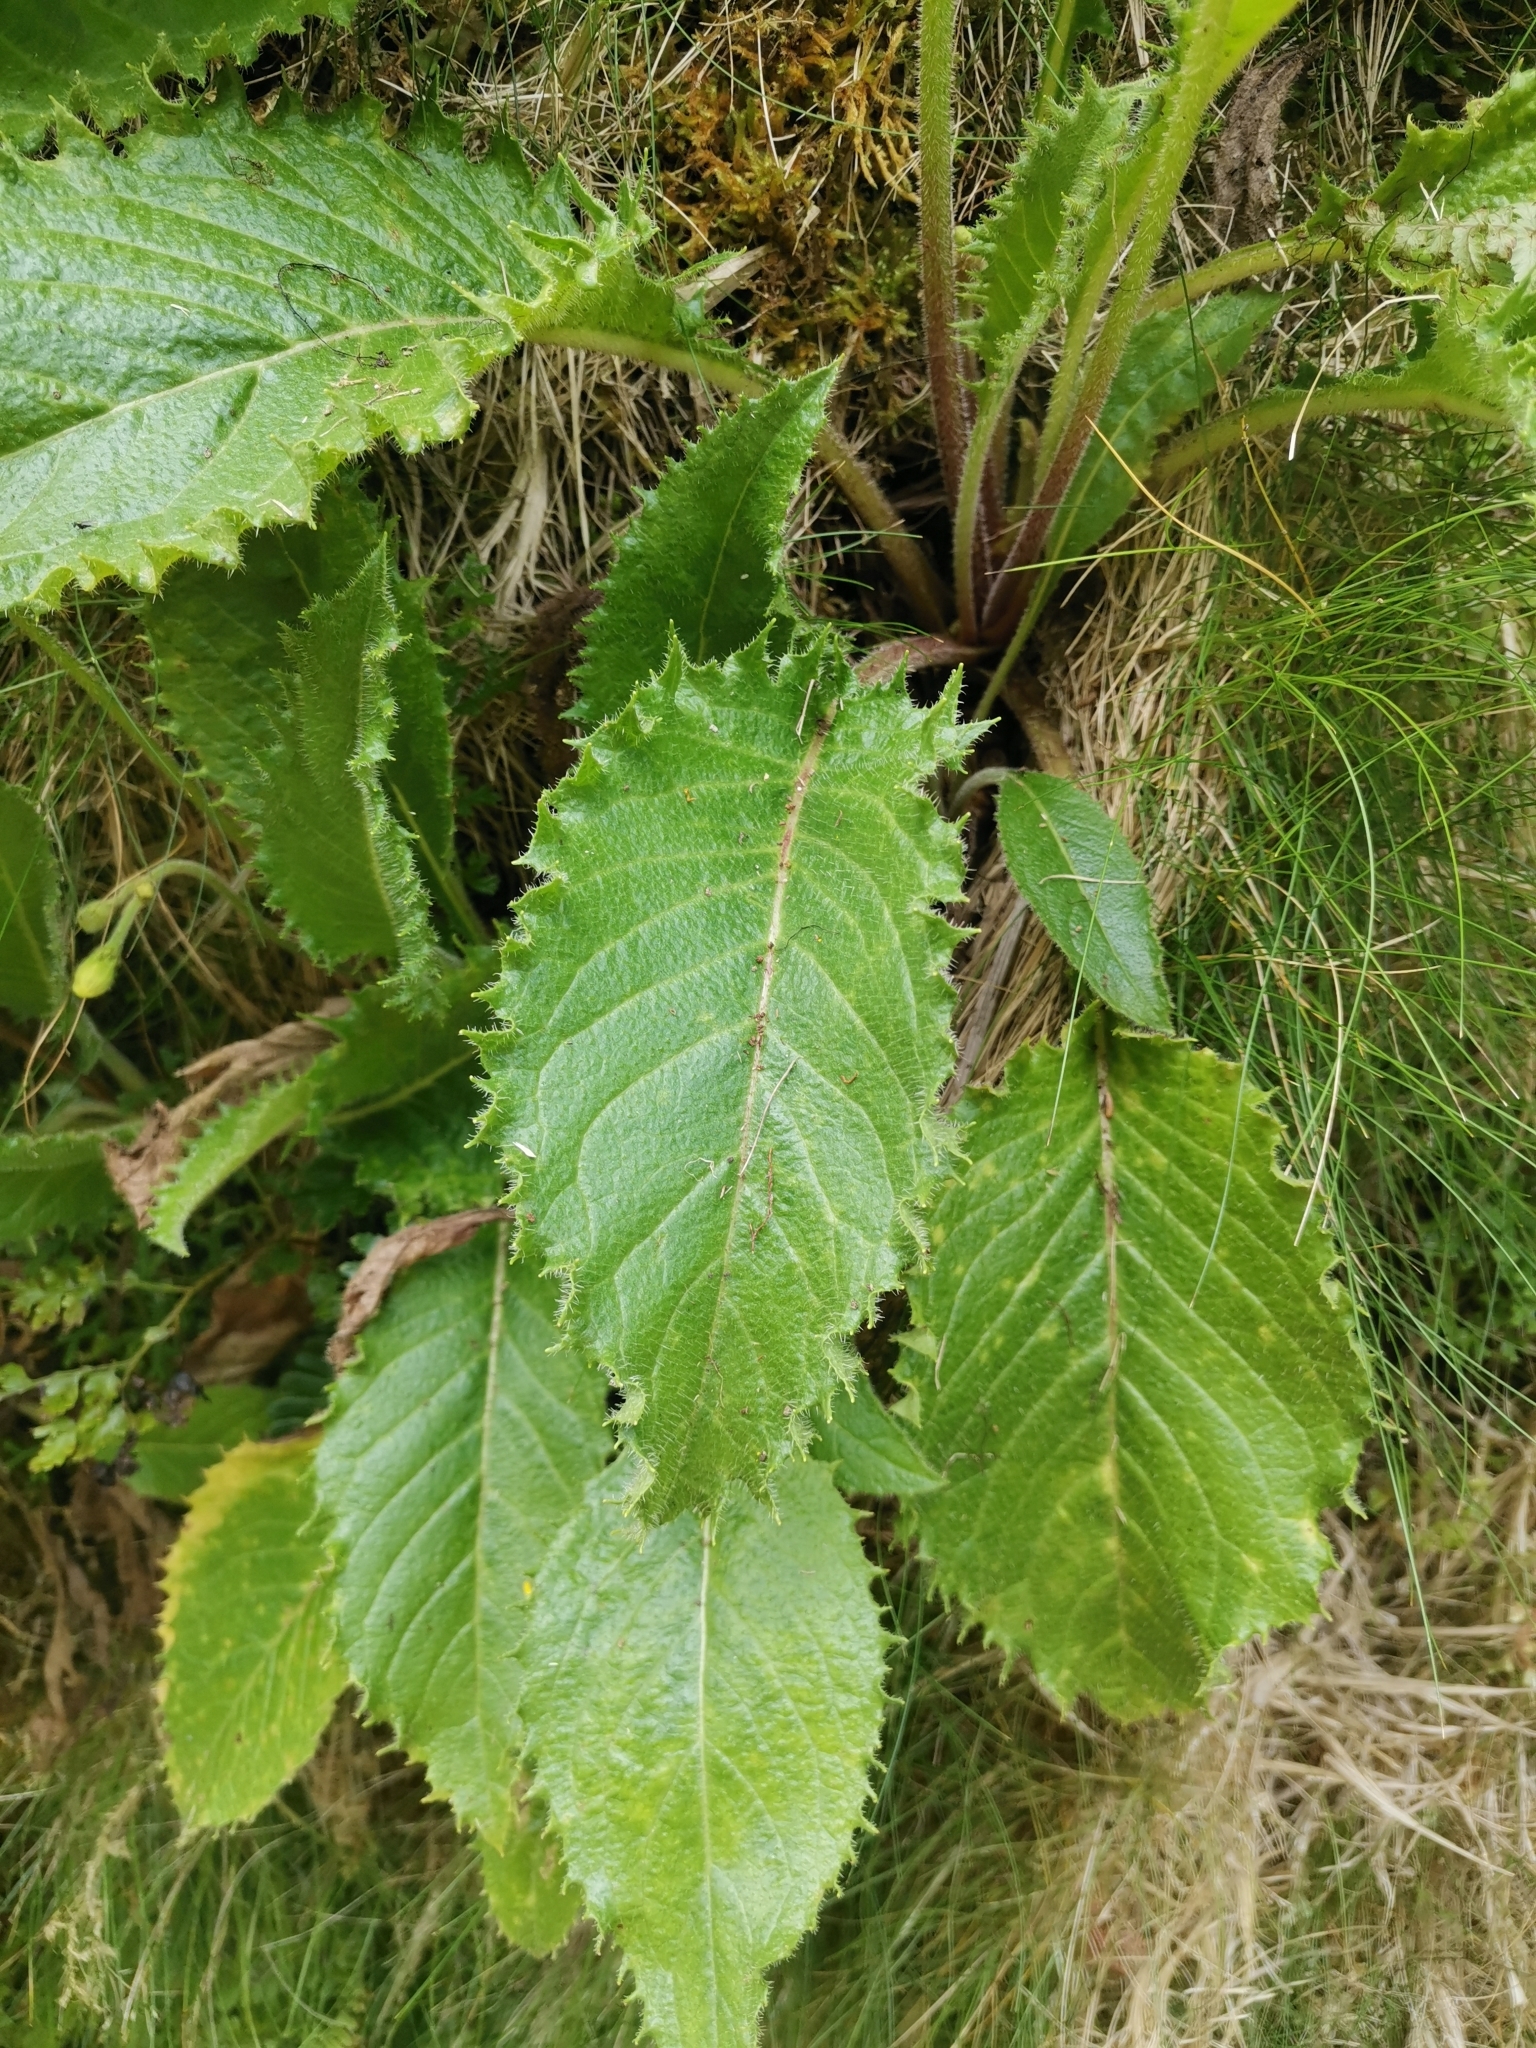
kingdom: Plantae
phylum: Tracheophyta
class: Magnoliopsida
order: Asterales
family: Asteraceae
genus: Leontodon
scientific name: Leontodon filii
